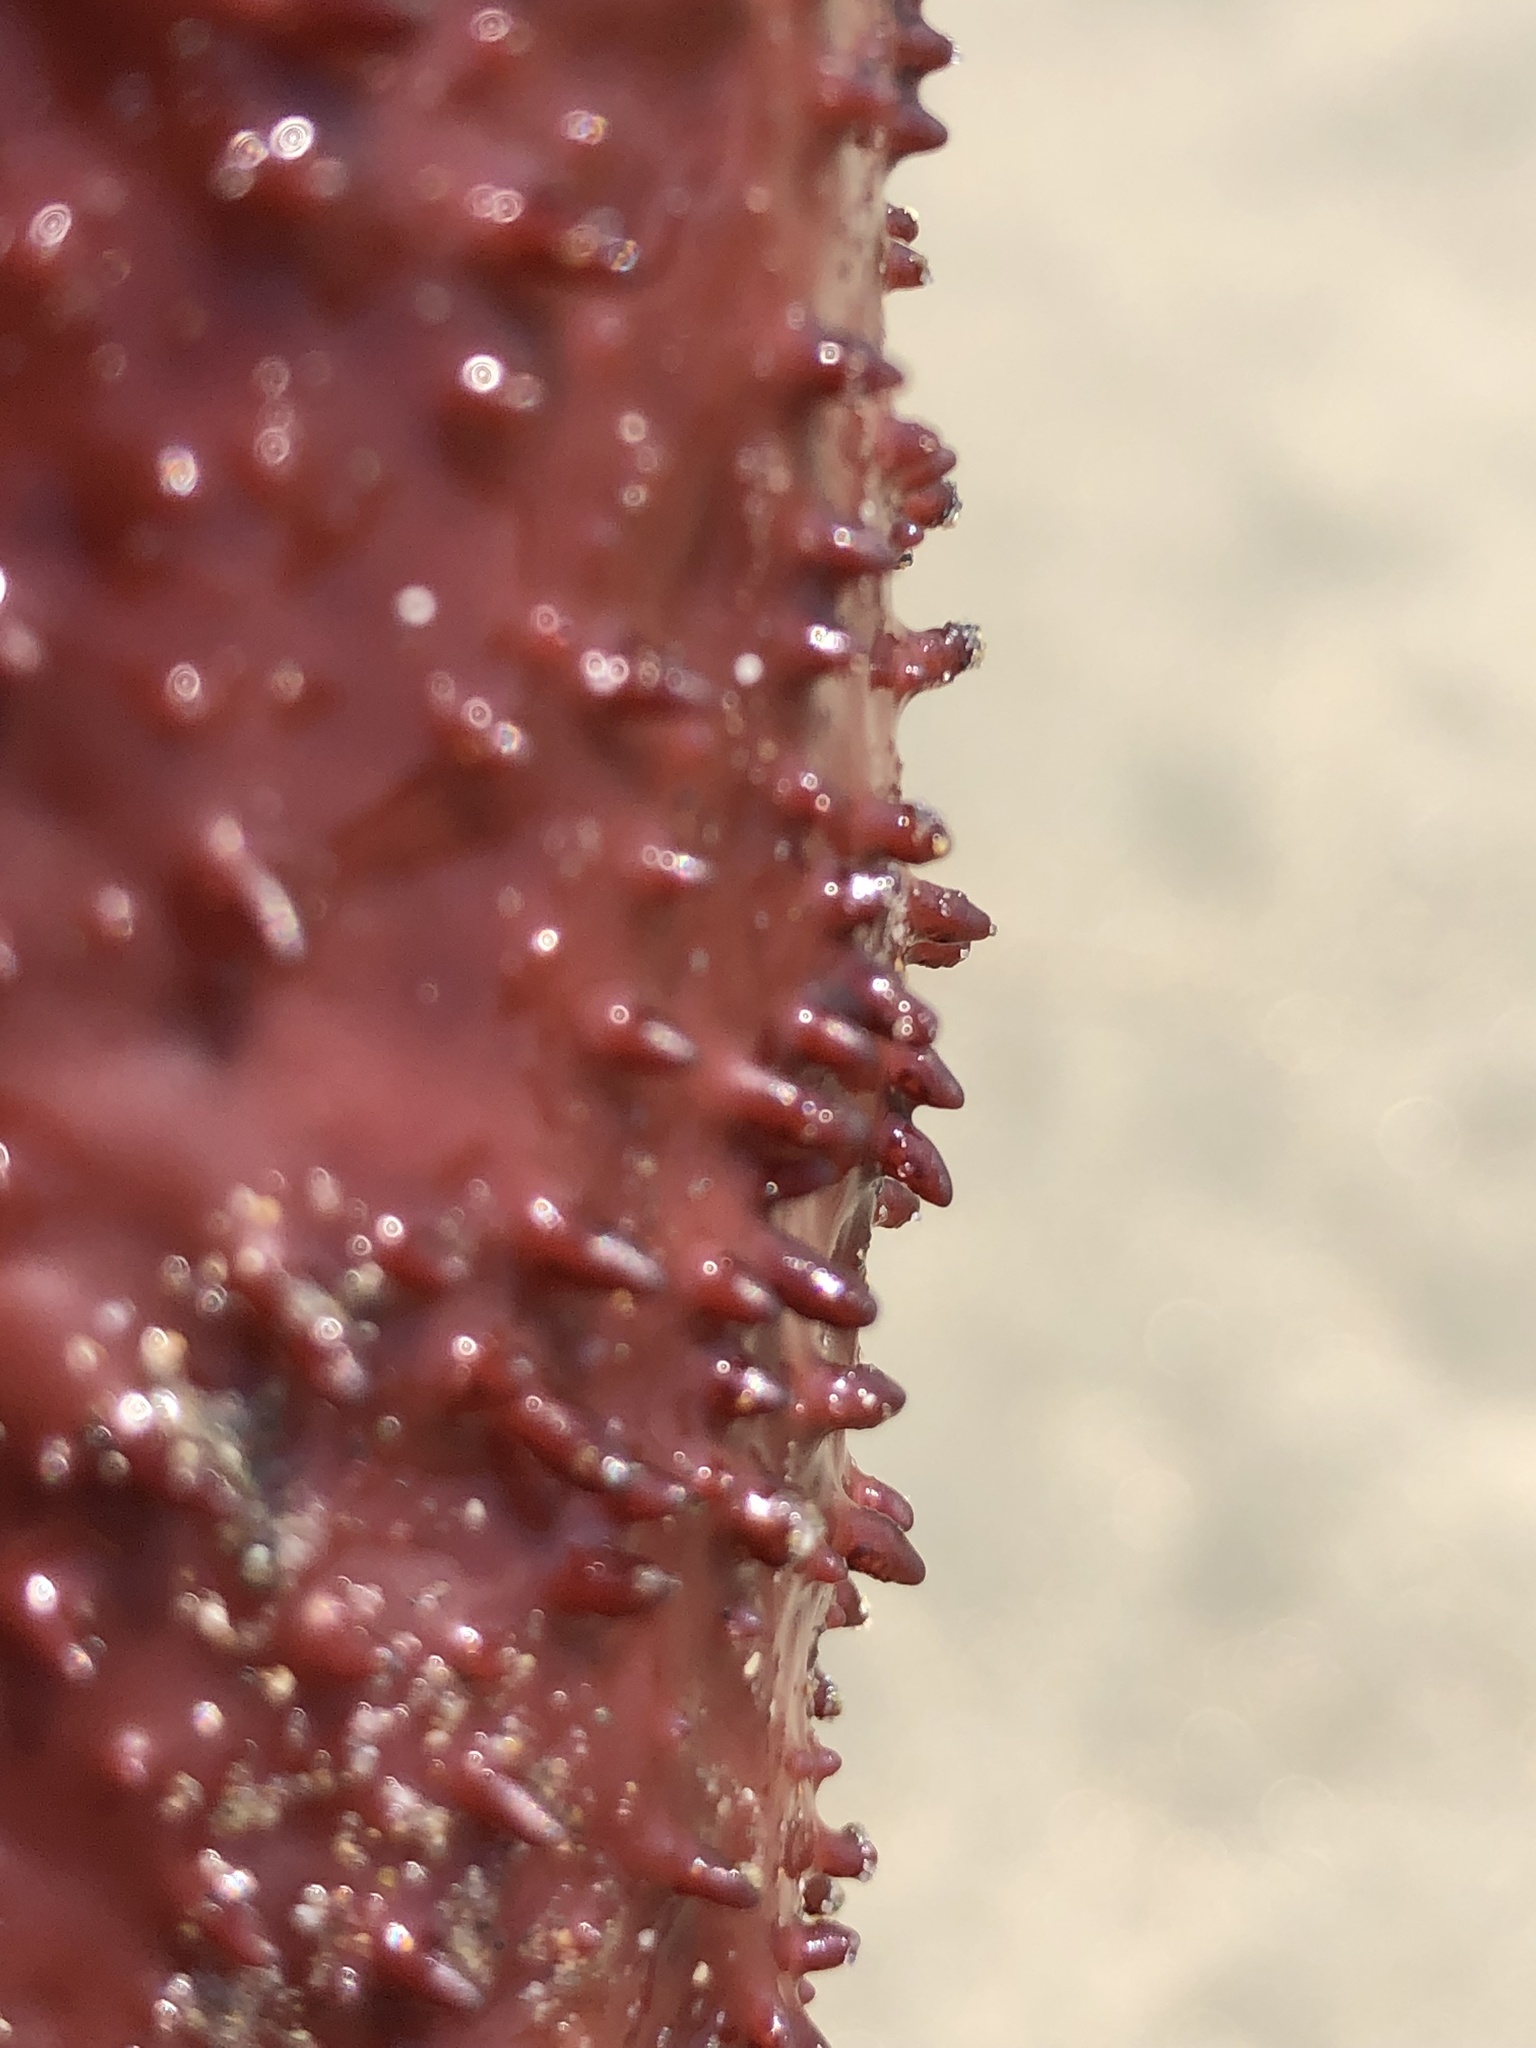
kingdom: Plantae
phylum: Rhodophyta
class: Florideophyceae
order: Gigartinales
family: Gigartinaceae
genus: Chondracanthus
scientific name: Chondracanthus exasperatus
